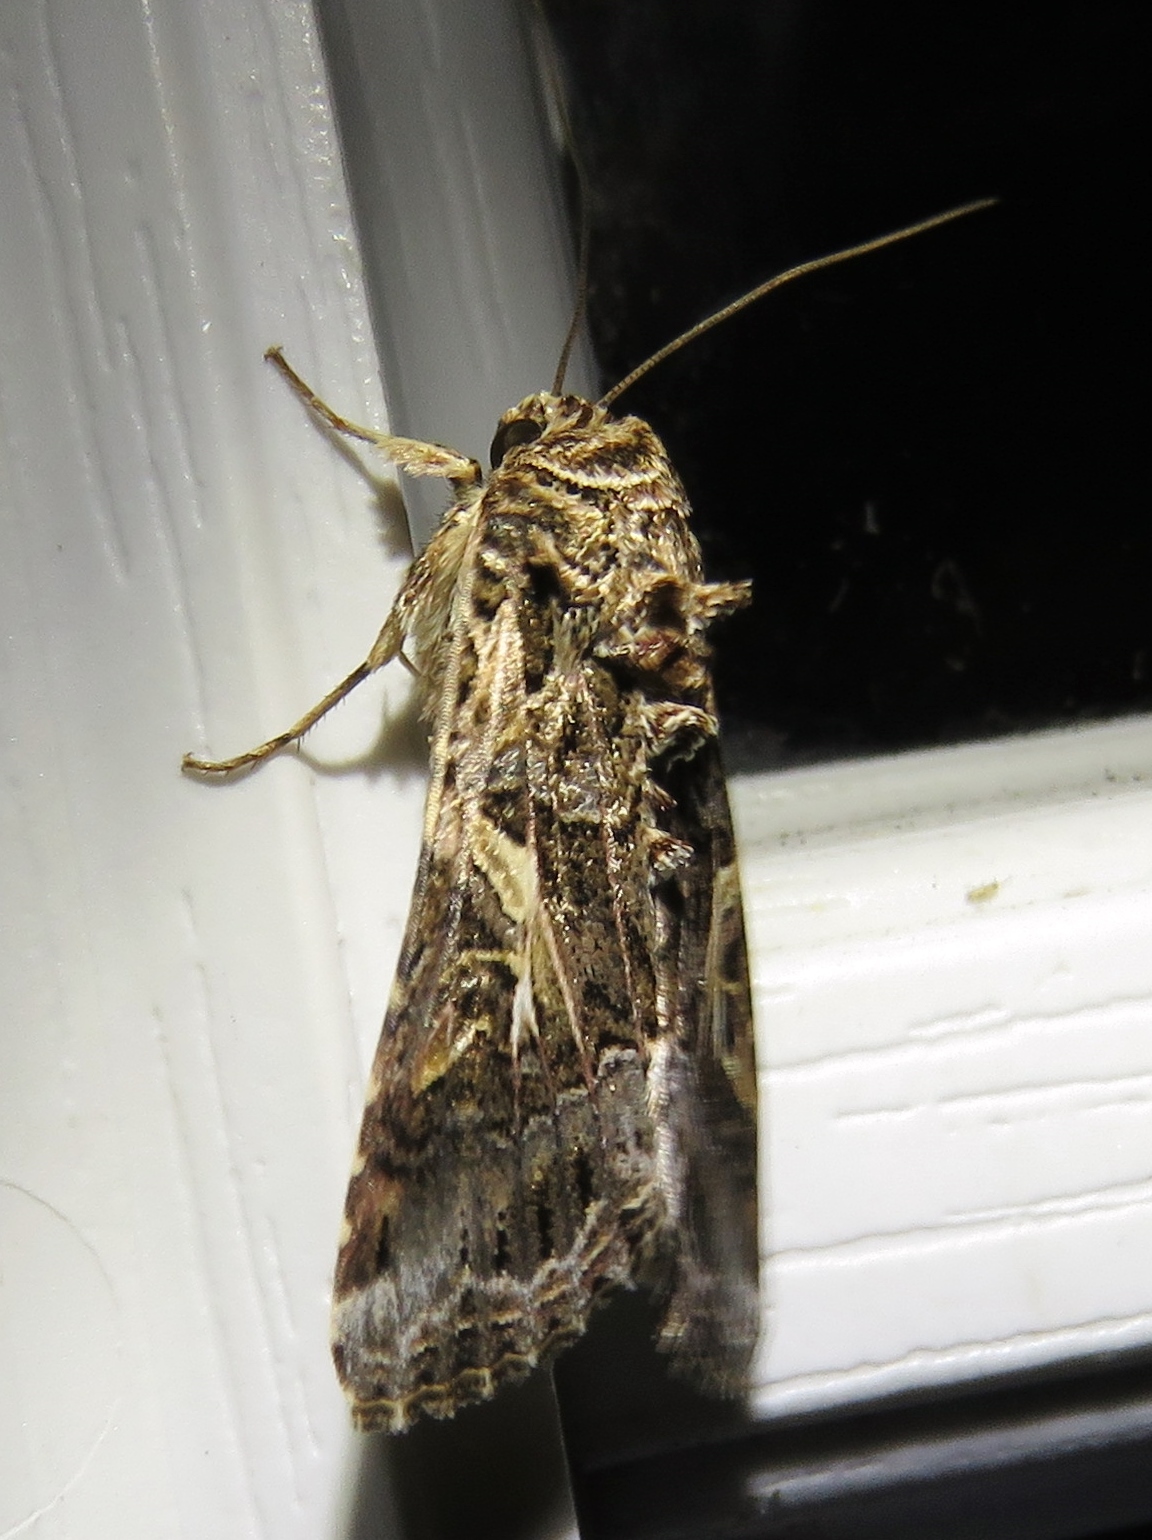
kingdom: Animalia
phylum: Arthropoda
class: Insecta
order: Lepidoptera
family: Noctuidae
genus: Spodoptera
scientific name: Spodoptera ornithogalli
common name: Yellow-striped armyworm
